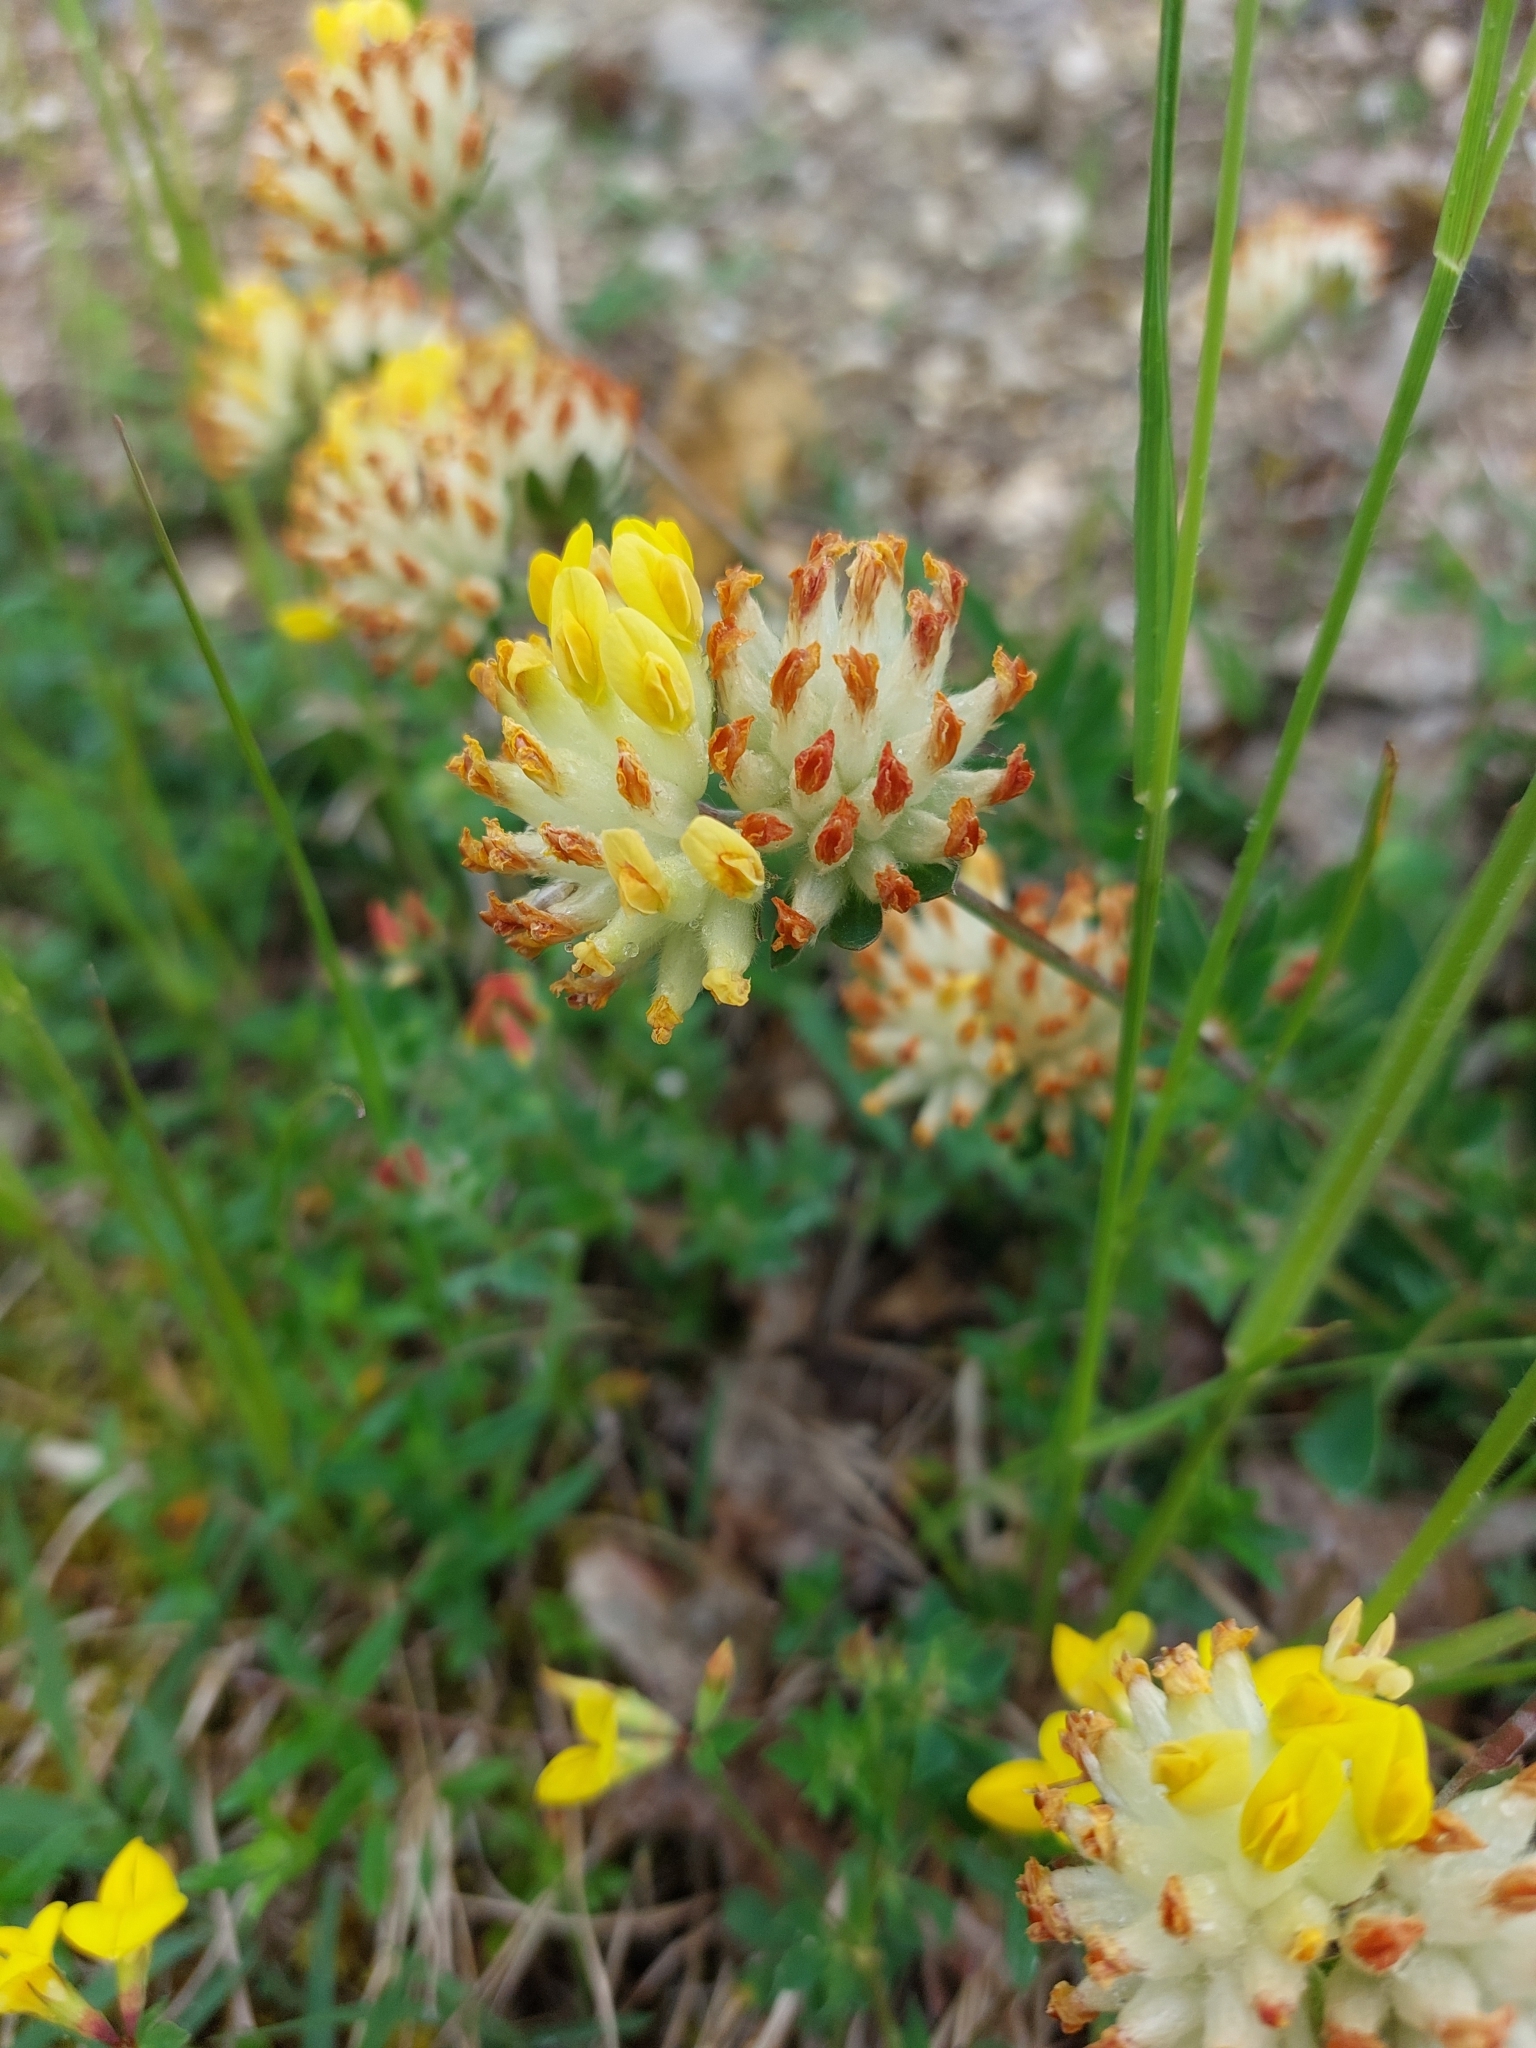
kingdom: Plantae
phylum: Tracheophyta
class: Magnoliopsida
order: Fabales
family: Fabaceae
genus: Anthyllis
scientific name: Anthyllis vulneraria
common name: Kidney vetch
